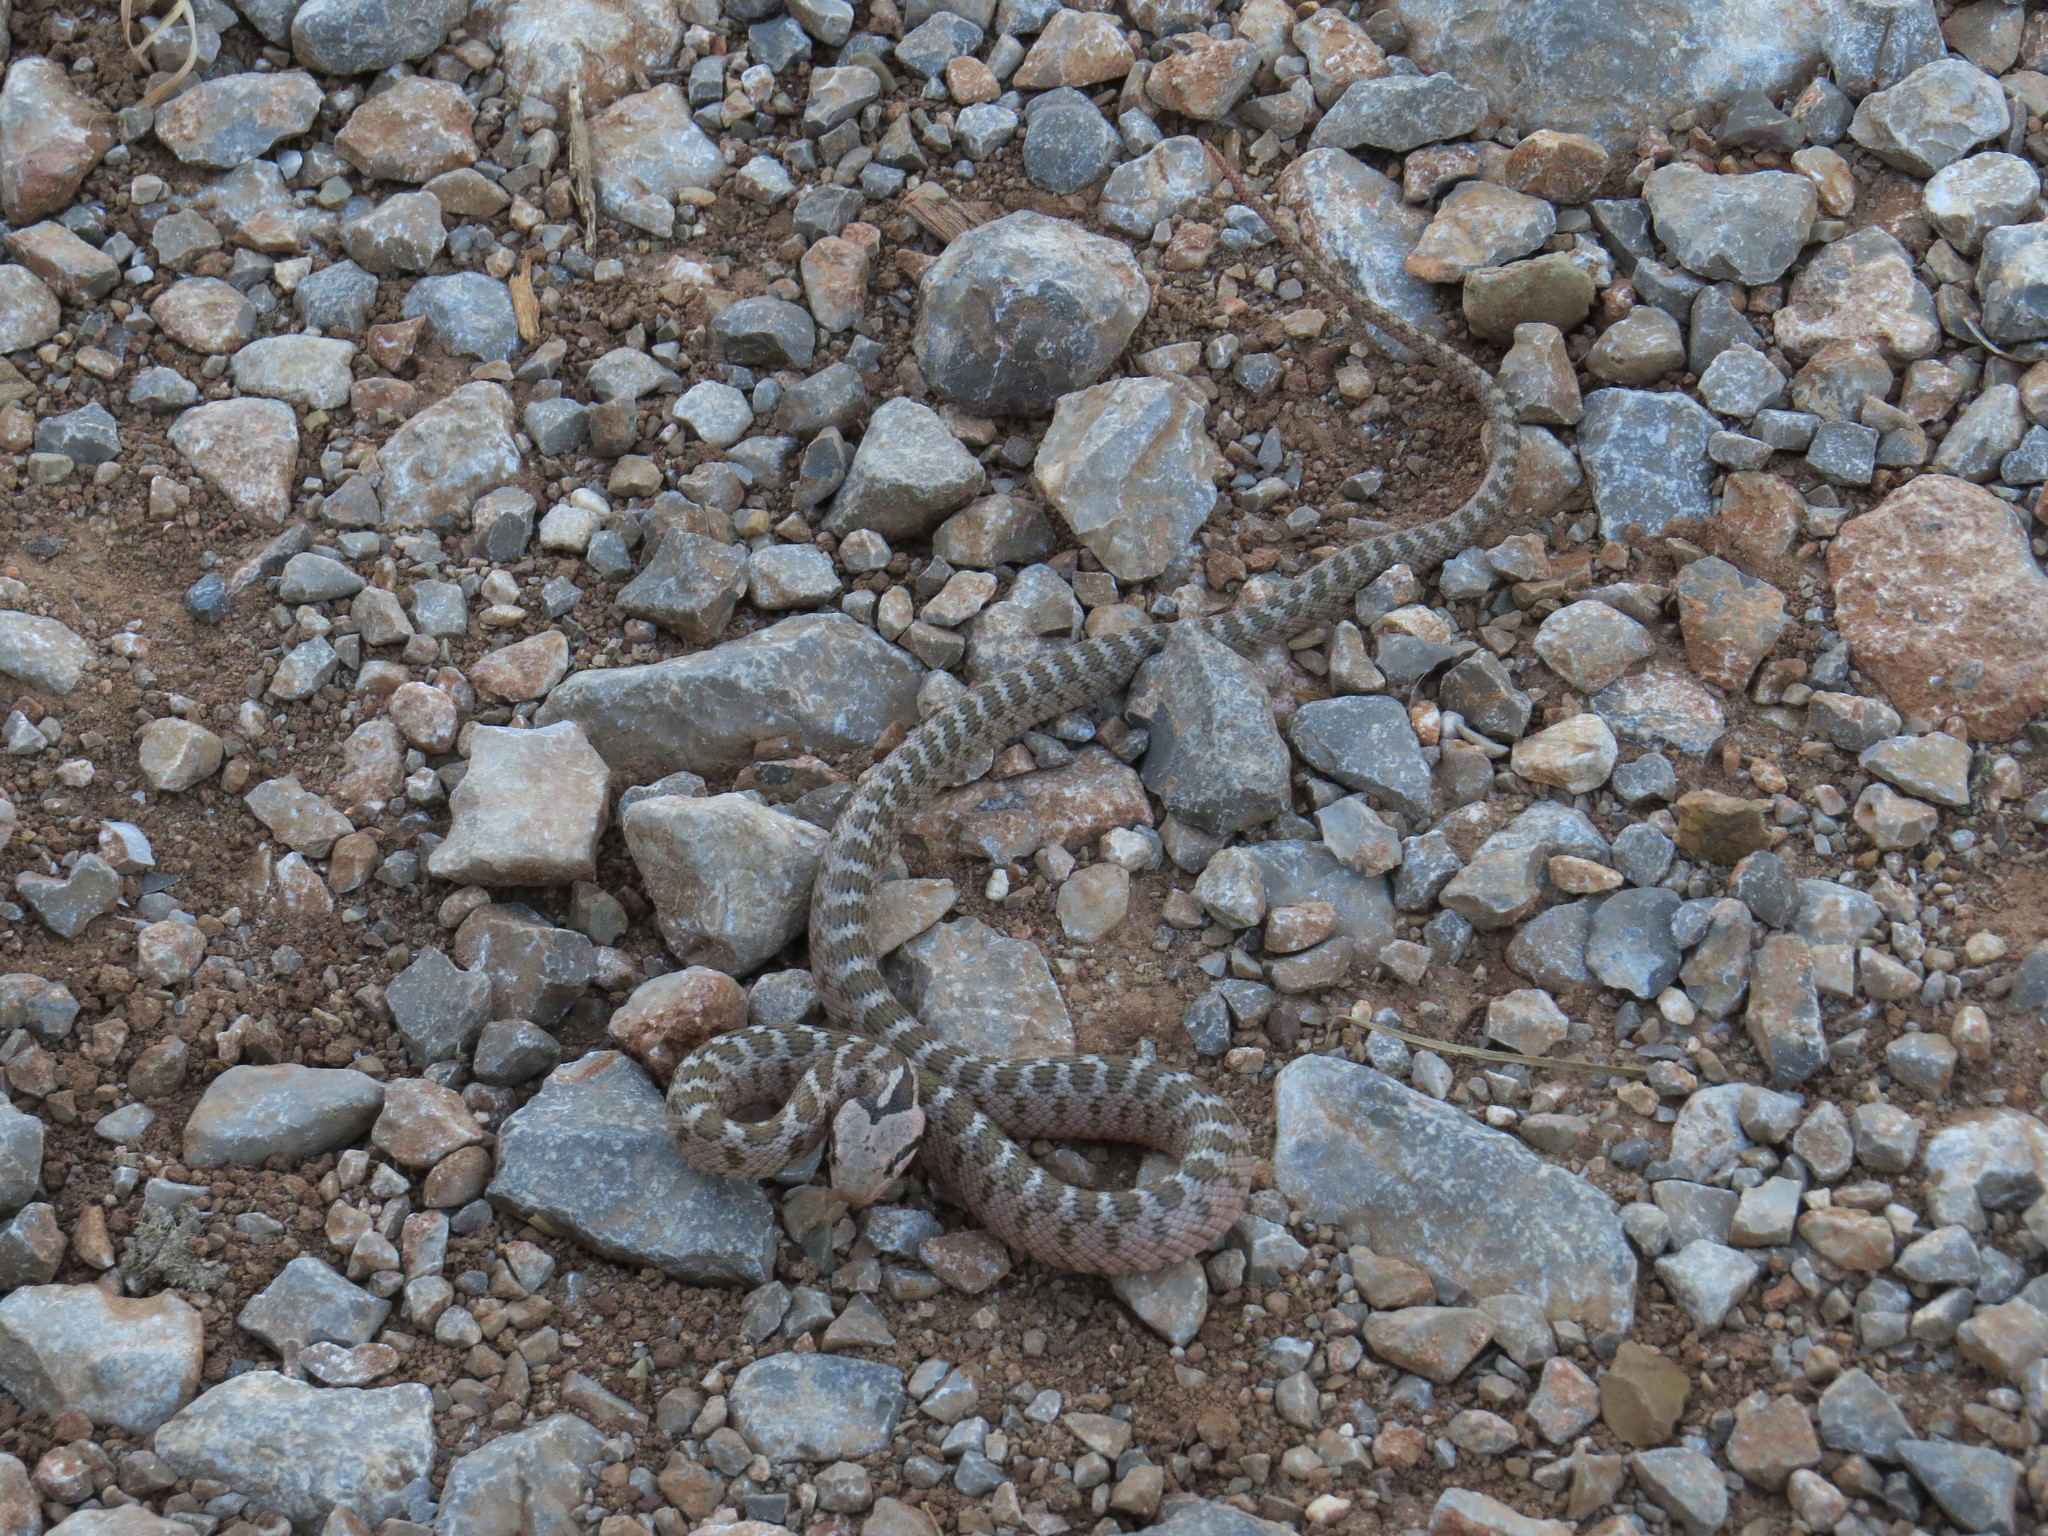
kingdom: Animalia
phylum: Chordata
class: Squamata
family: Colubridae
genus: Zamenis
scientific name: Zamenis hohenackeri
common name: Transcaucasian rat snake
